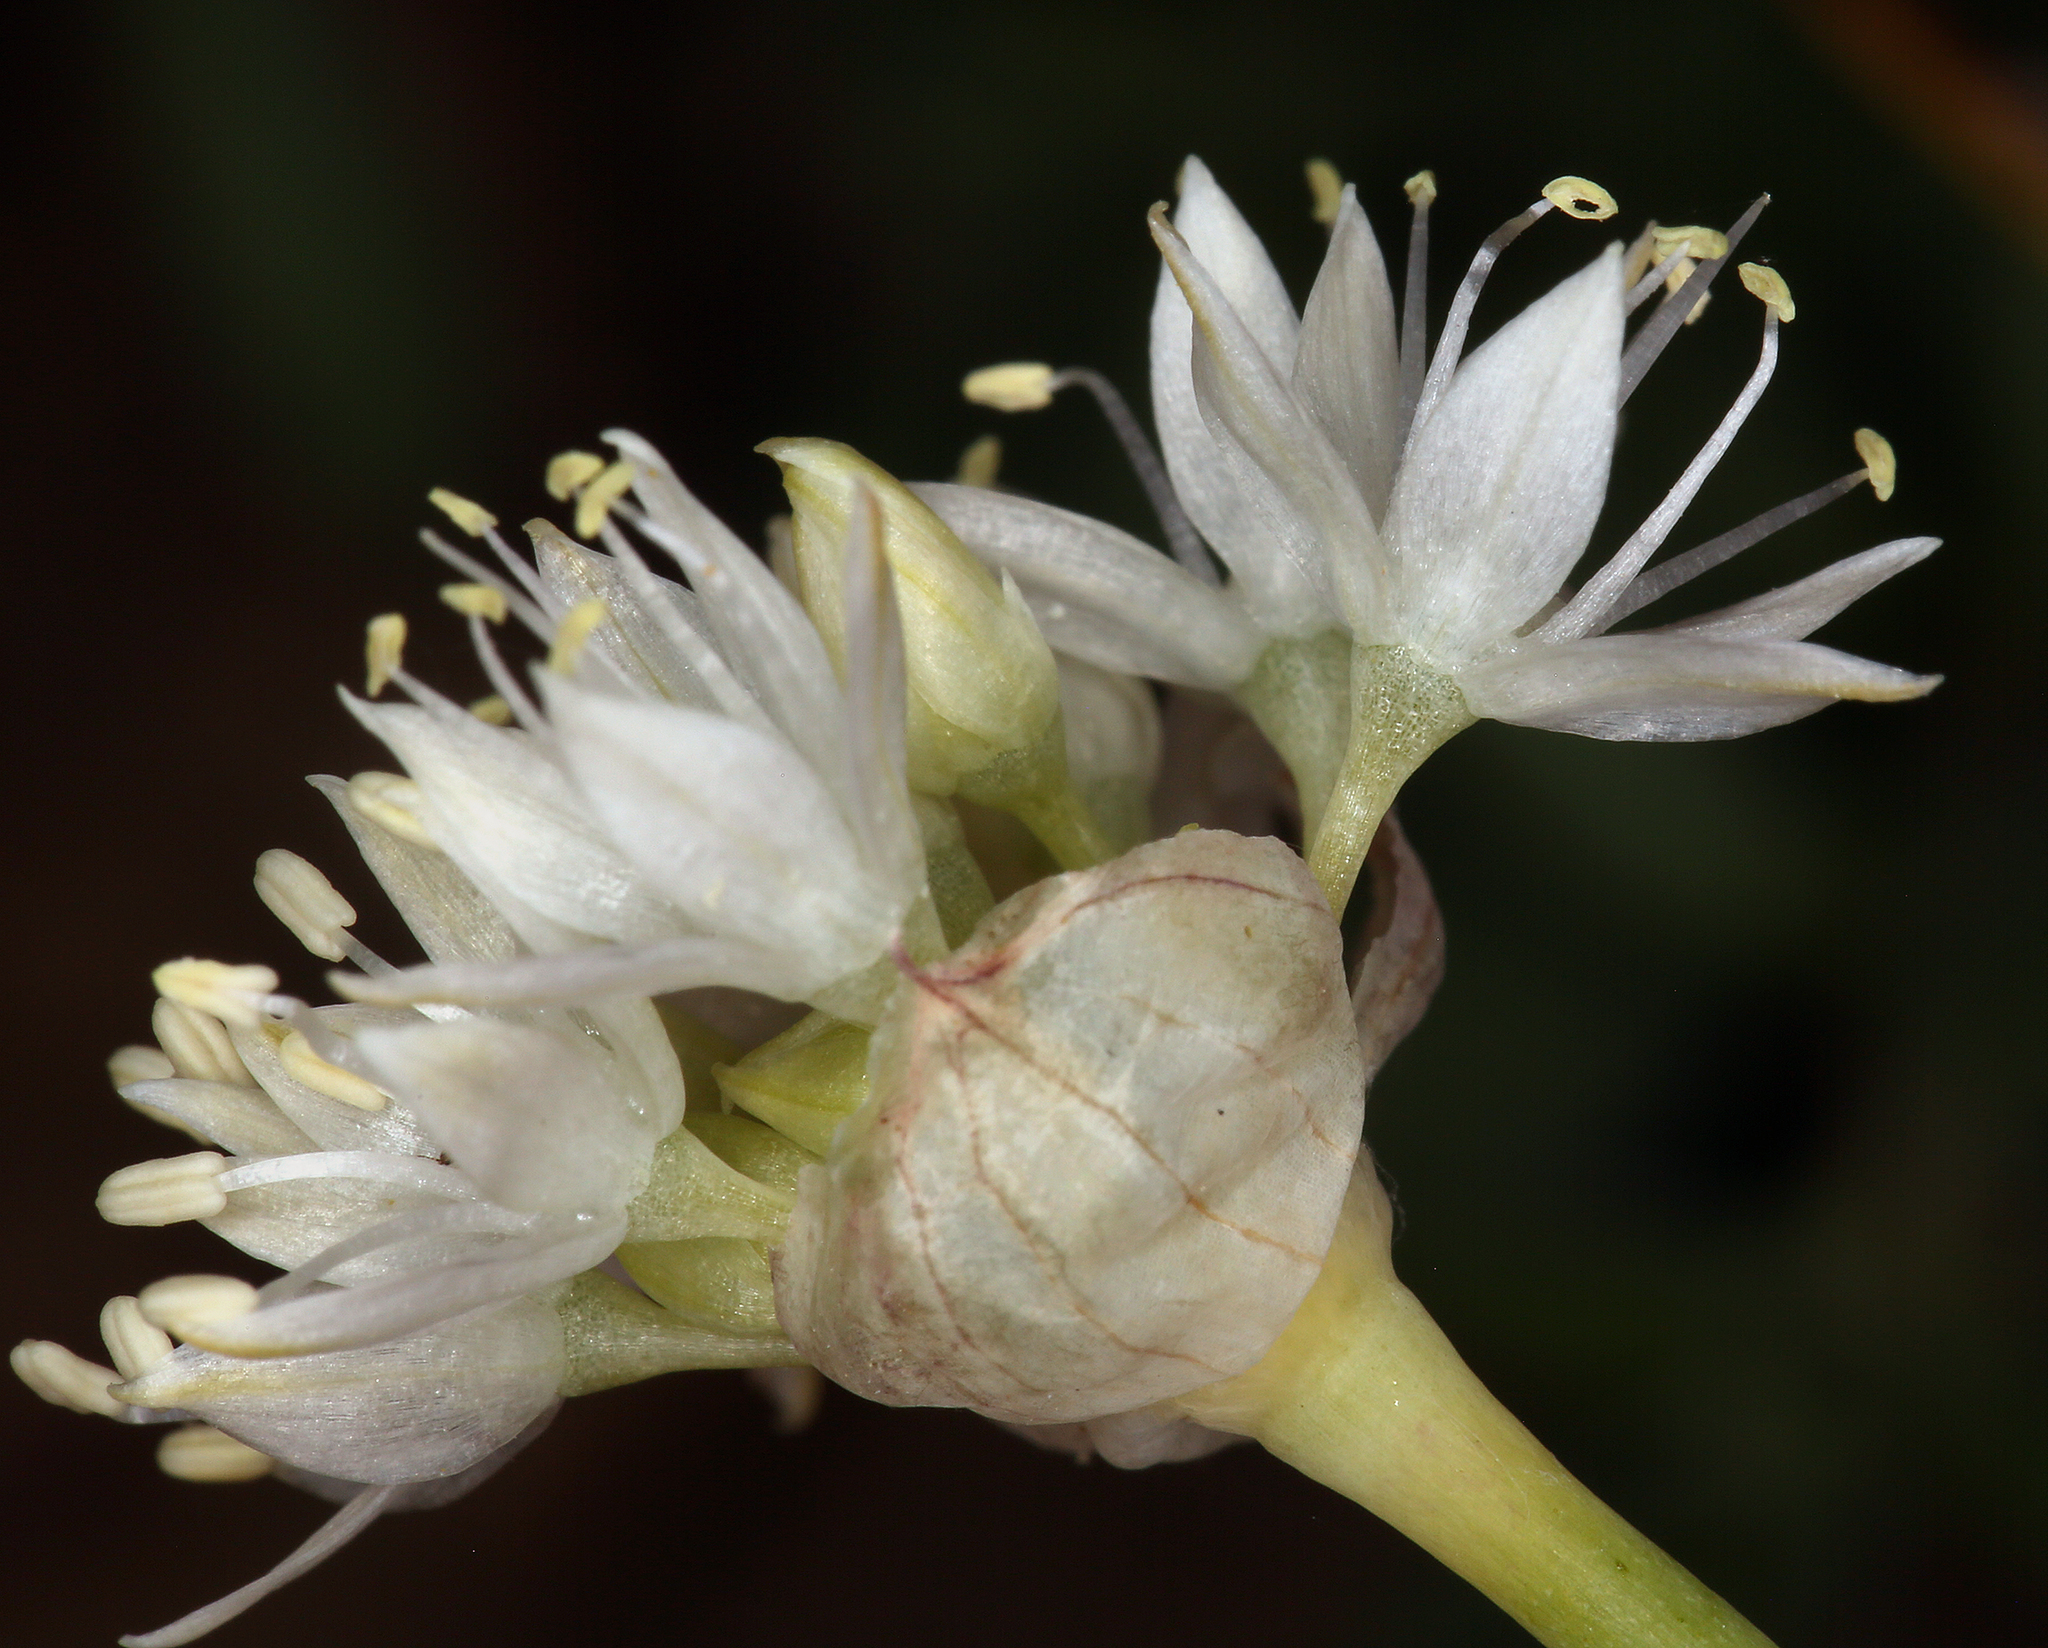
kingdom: Plantae
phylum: Tracheophyta
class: Liliopsida
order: Asparagales
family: Amaryllidaceae
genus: Allium
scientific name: Allium amplectens
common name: Narrow-leaved onion
